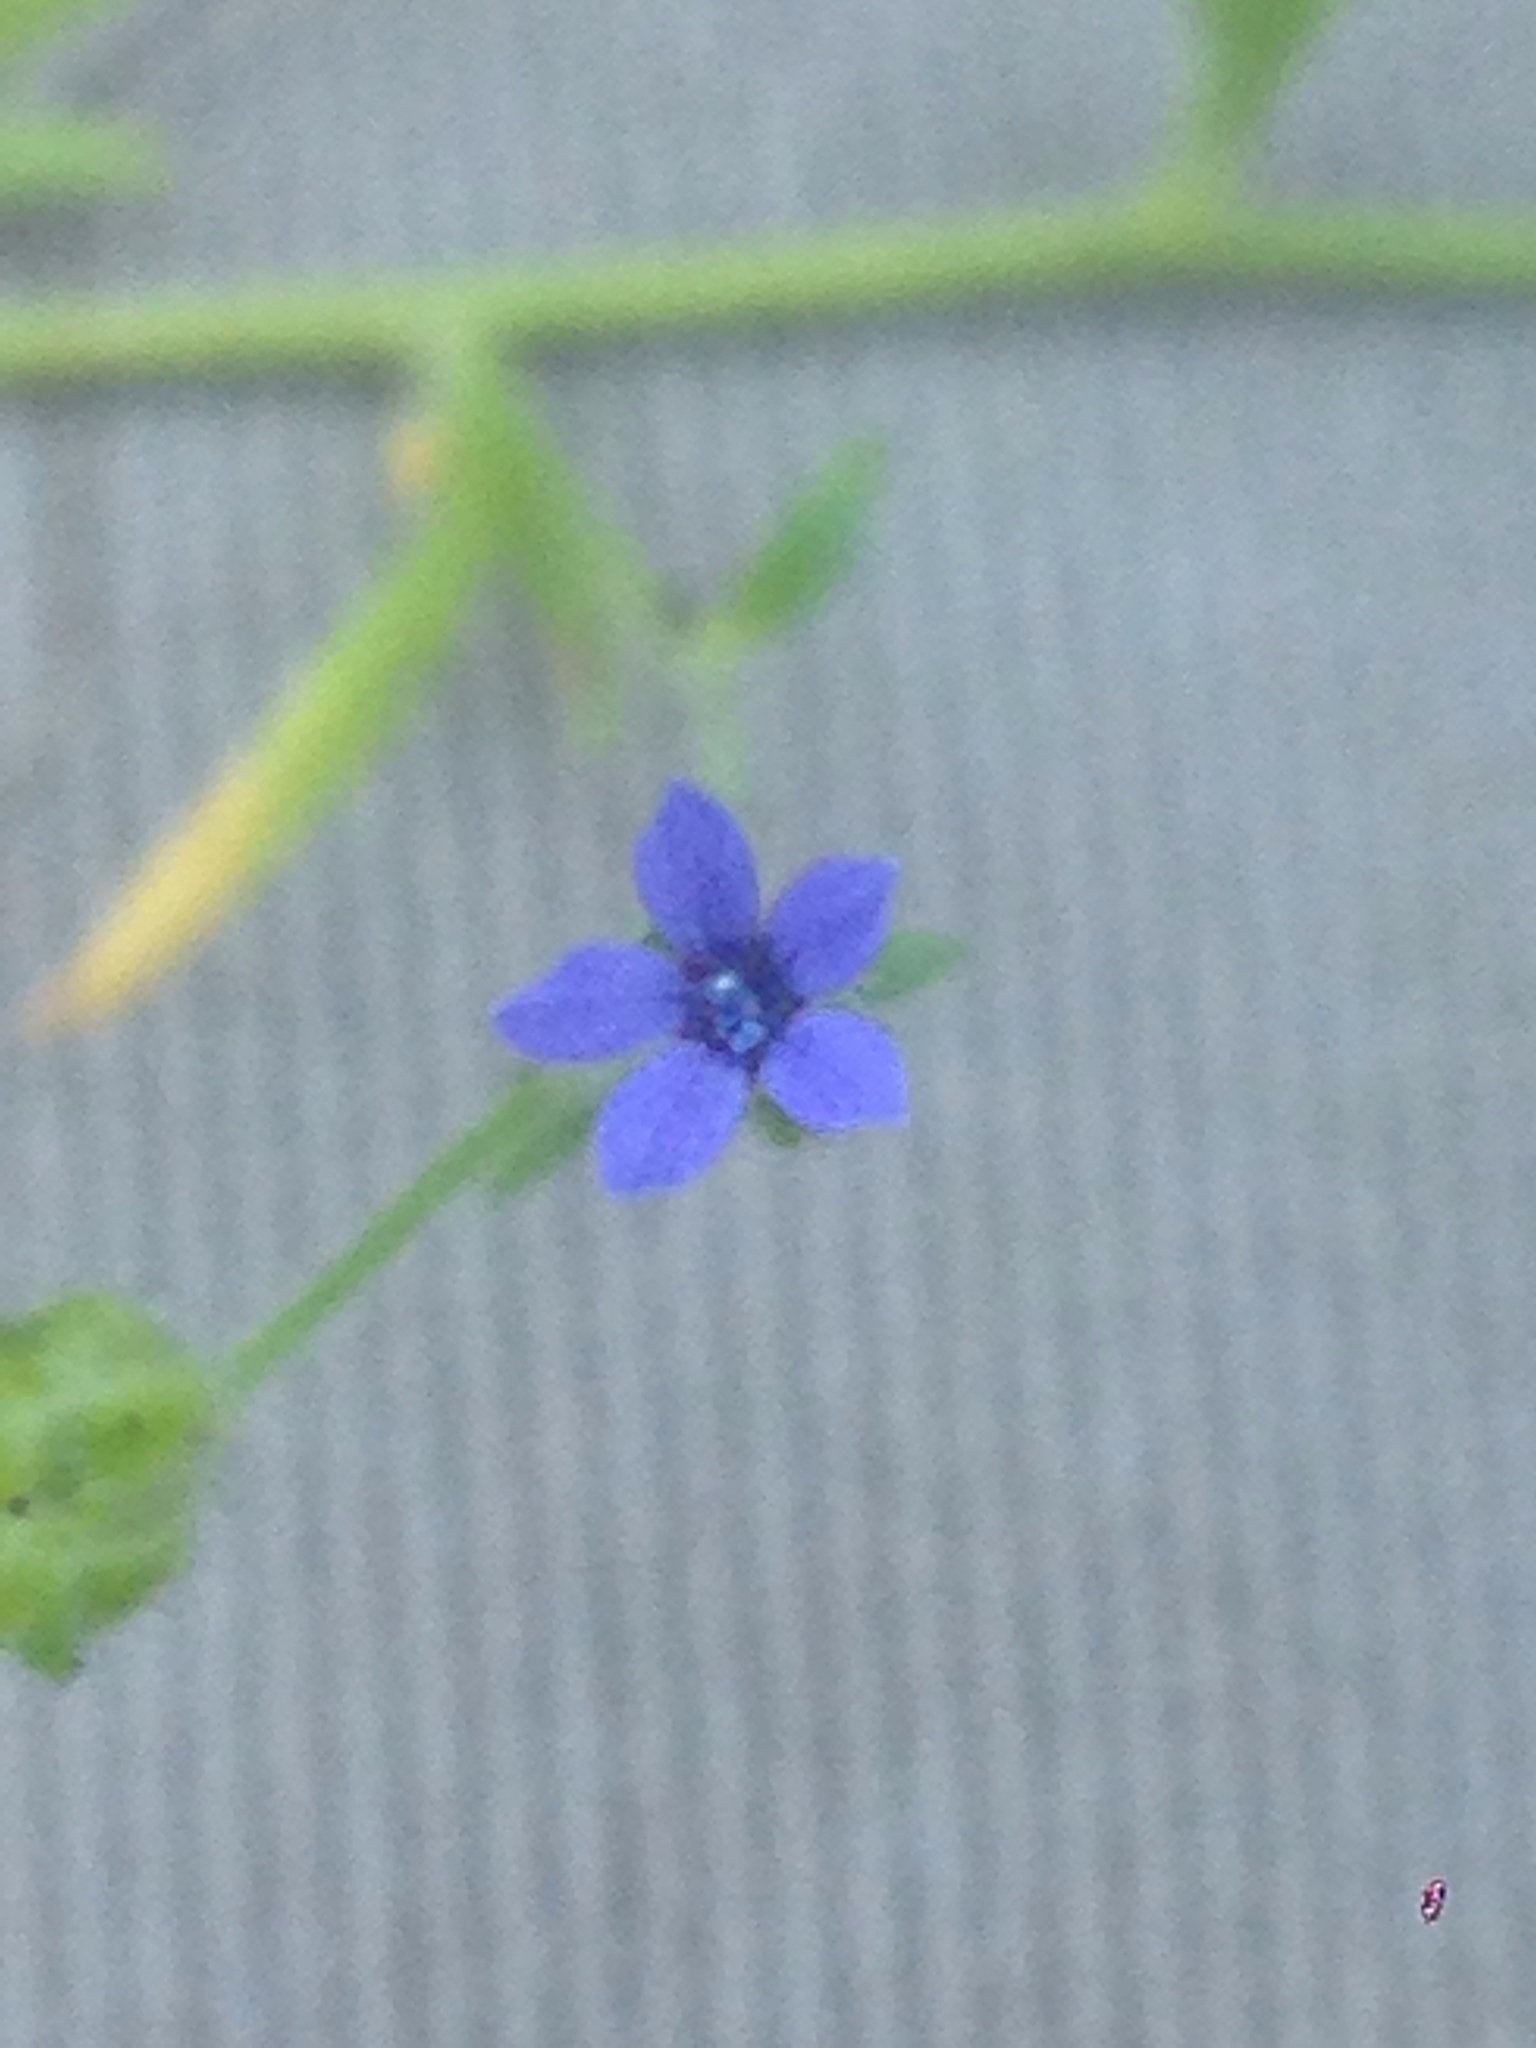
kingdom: Plantae
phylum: Tracheophyta
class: Magnoliopsida
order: Ericales
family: Polemoniaceae
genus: Allophyllum
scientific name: Allophyllum gilioides
